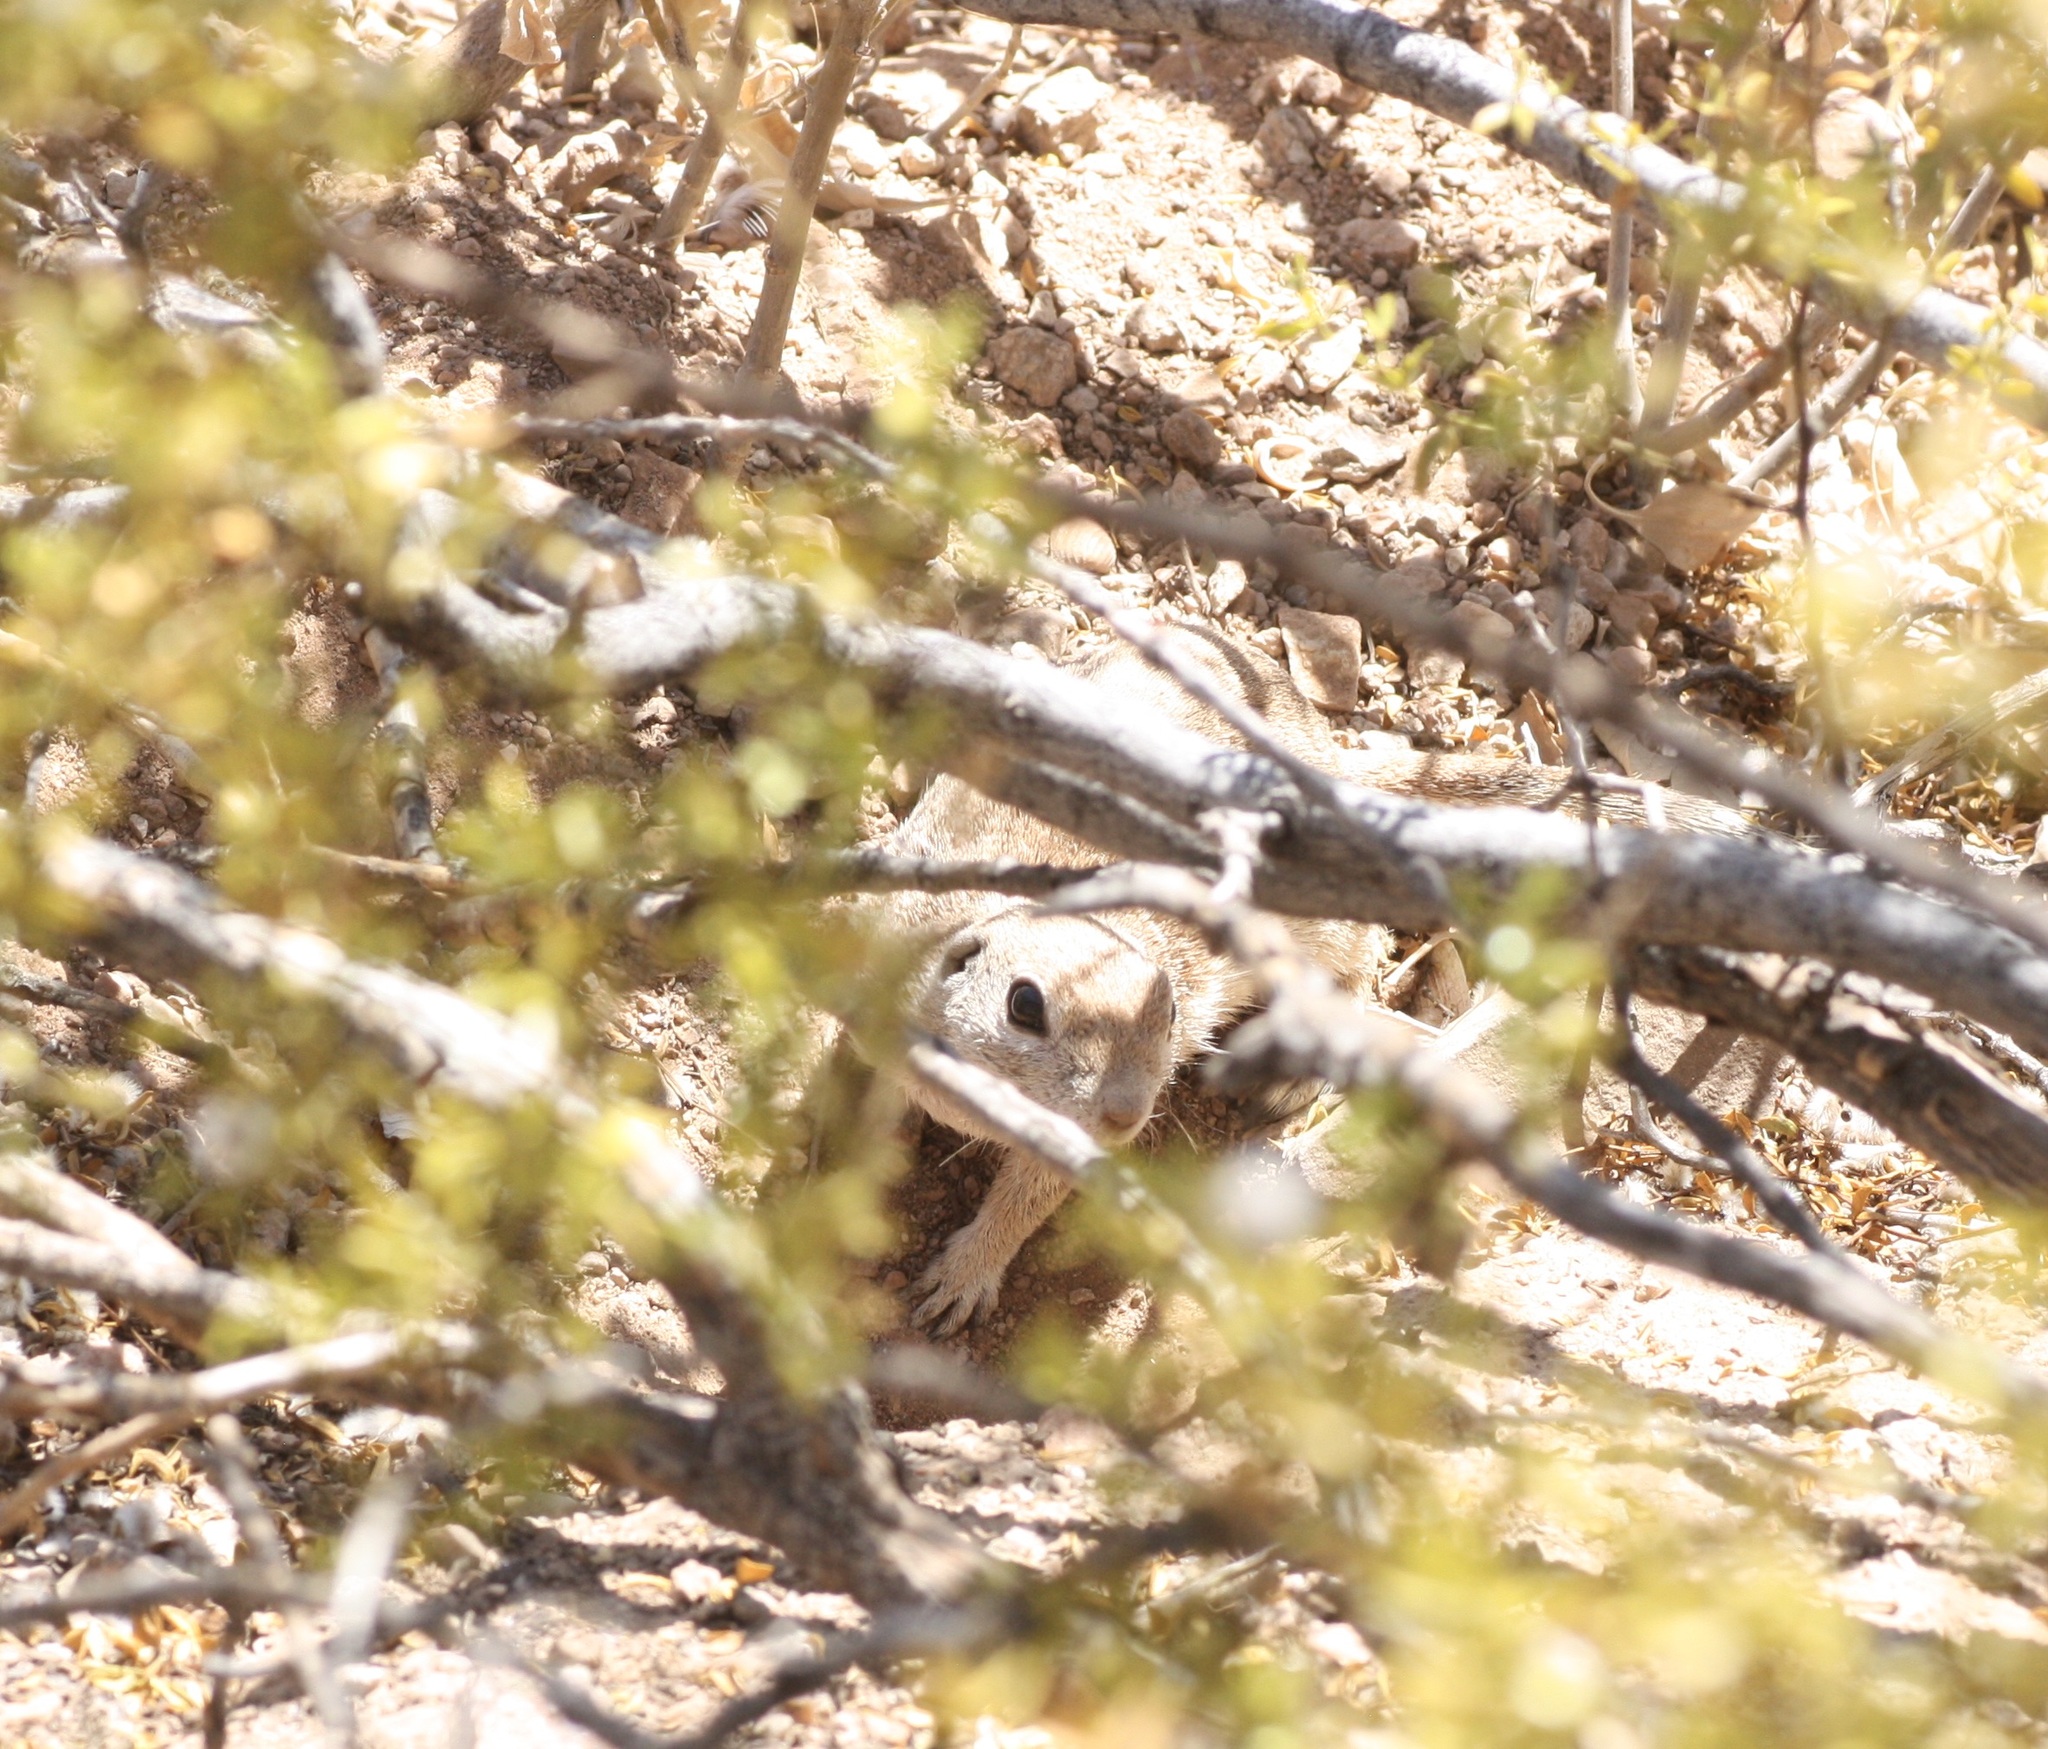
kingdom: Animalia
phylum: Chordata
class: Mammalia
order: Rodentia
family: Sciuridae
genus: Xerospermophilus
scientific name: Xerospermophilus tereticaudus
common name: Round-tailed ground squirrel
